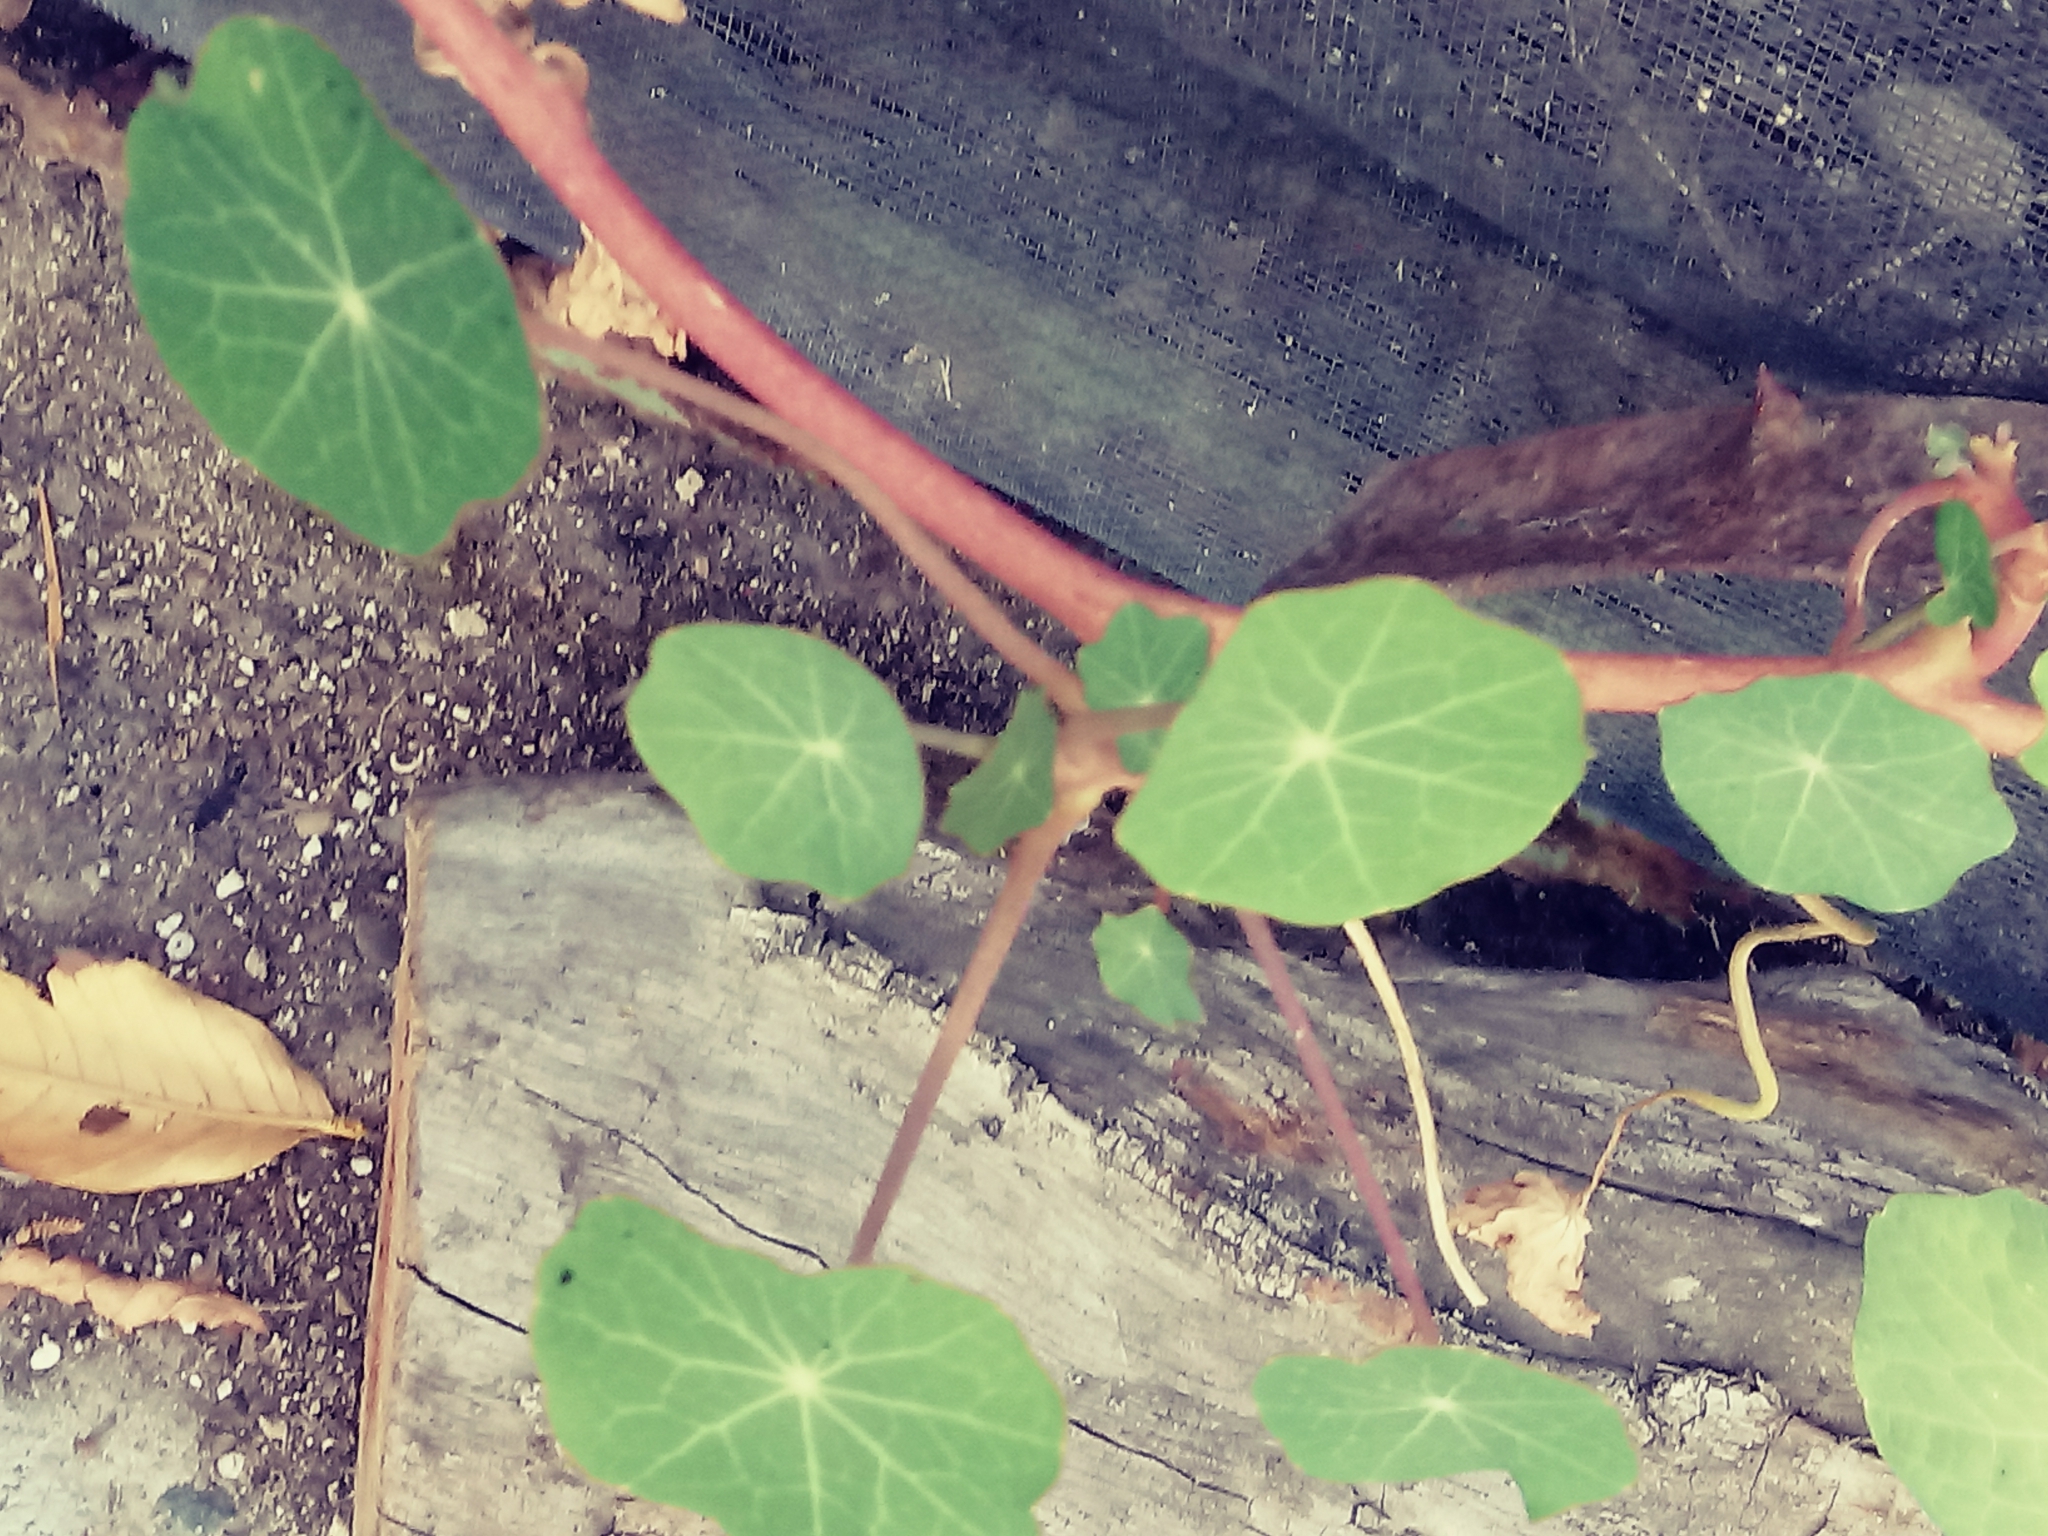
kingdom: Plantae
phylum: Tracheophyta
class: Magnoliopsida
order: Brassicales
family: Tropaeolaceae
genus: Tropaeolum
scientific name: Tropaeolum majus
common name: Nasturtium
